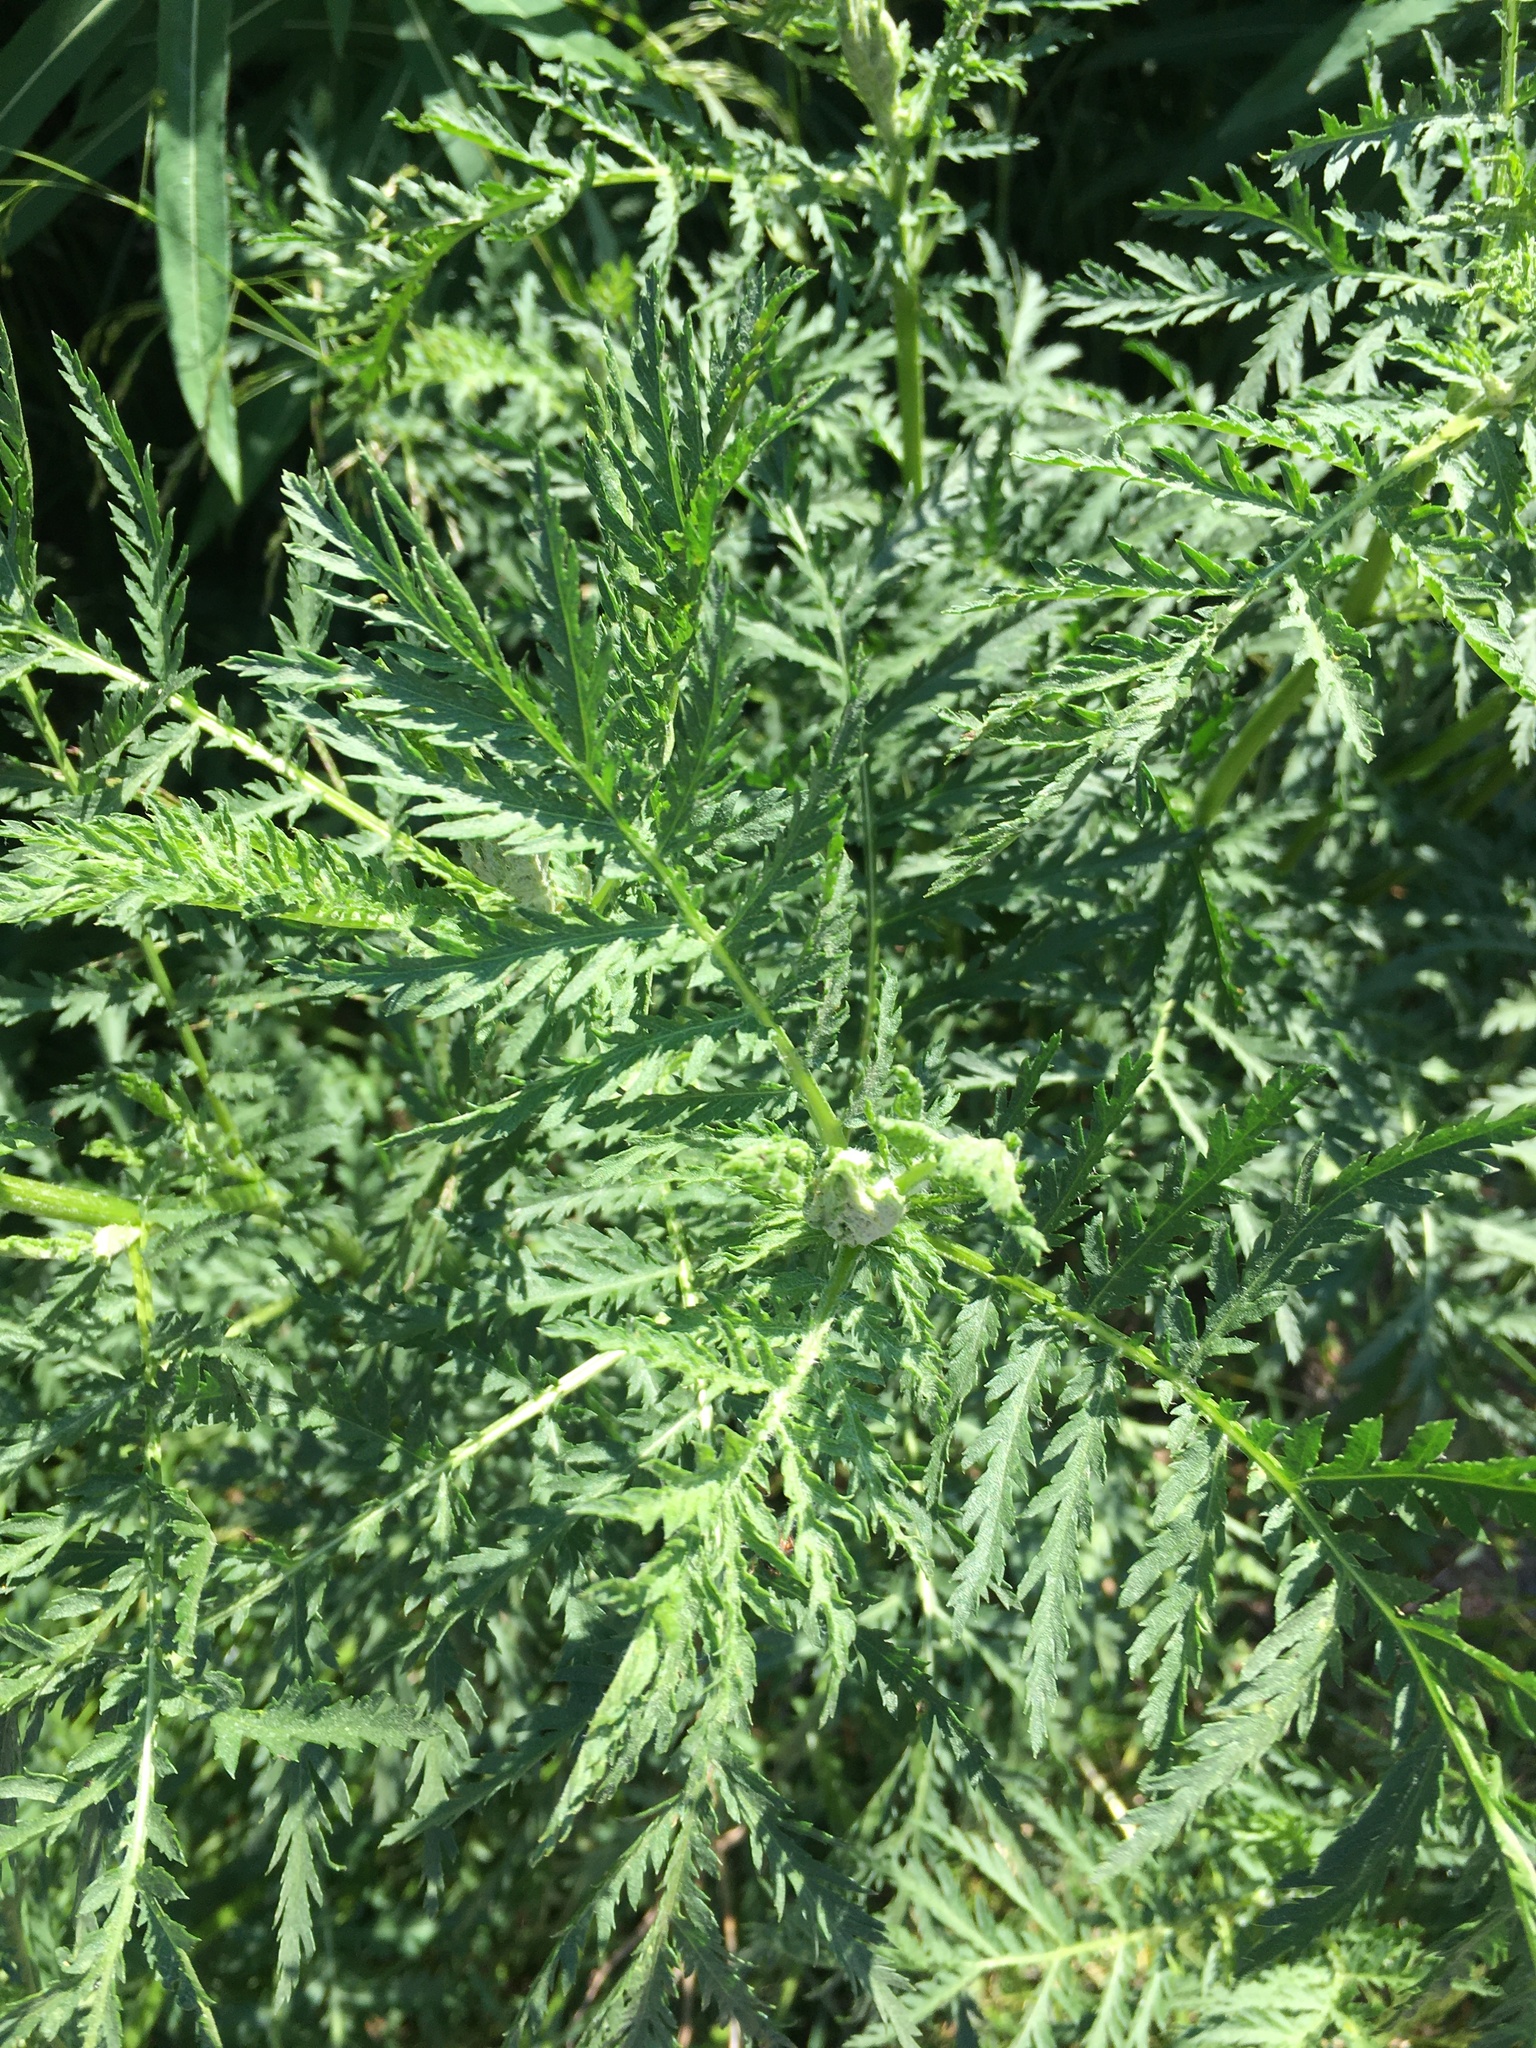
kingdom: Plantae
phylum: Tracheophyta
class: Magnoliopsida
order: Asterales
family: Asteraceae
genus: Tanacetum
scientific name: Tanacetum vulgare
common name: Common tansy
